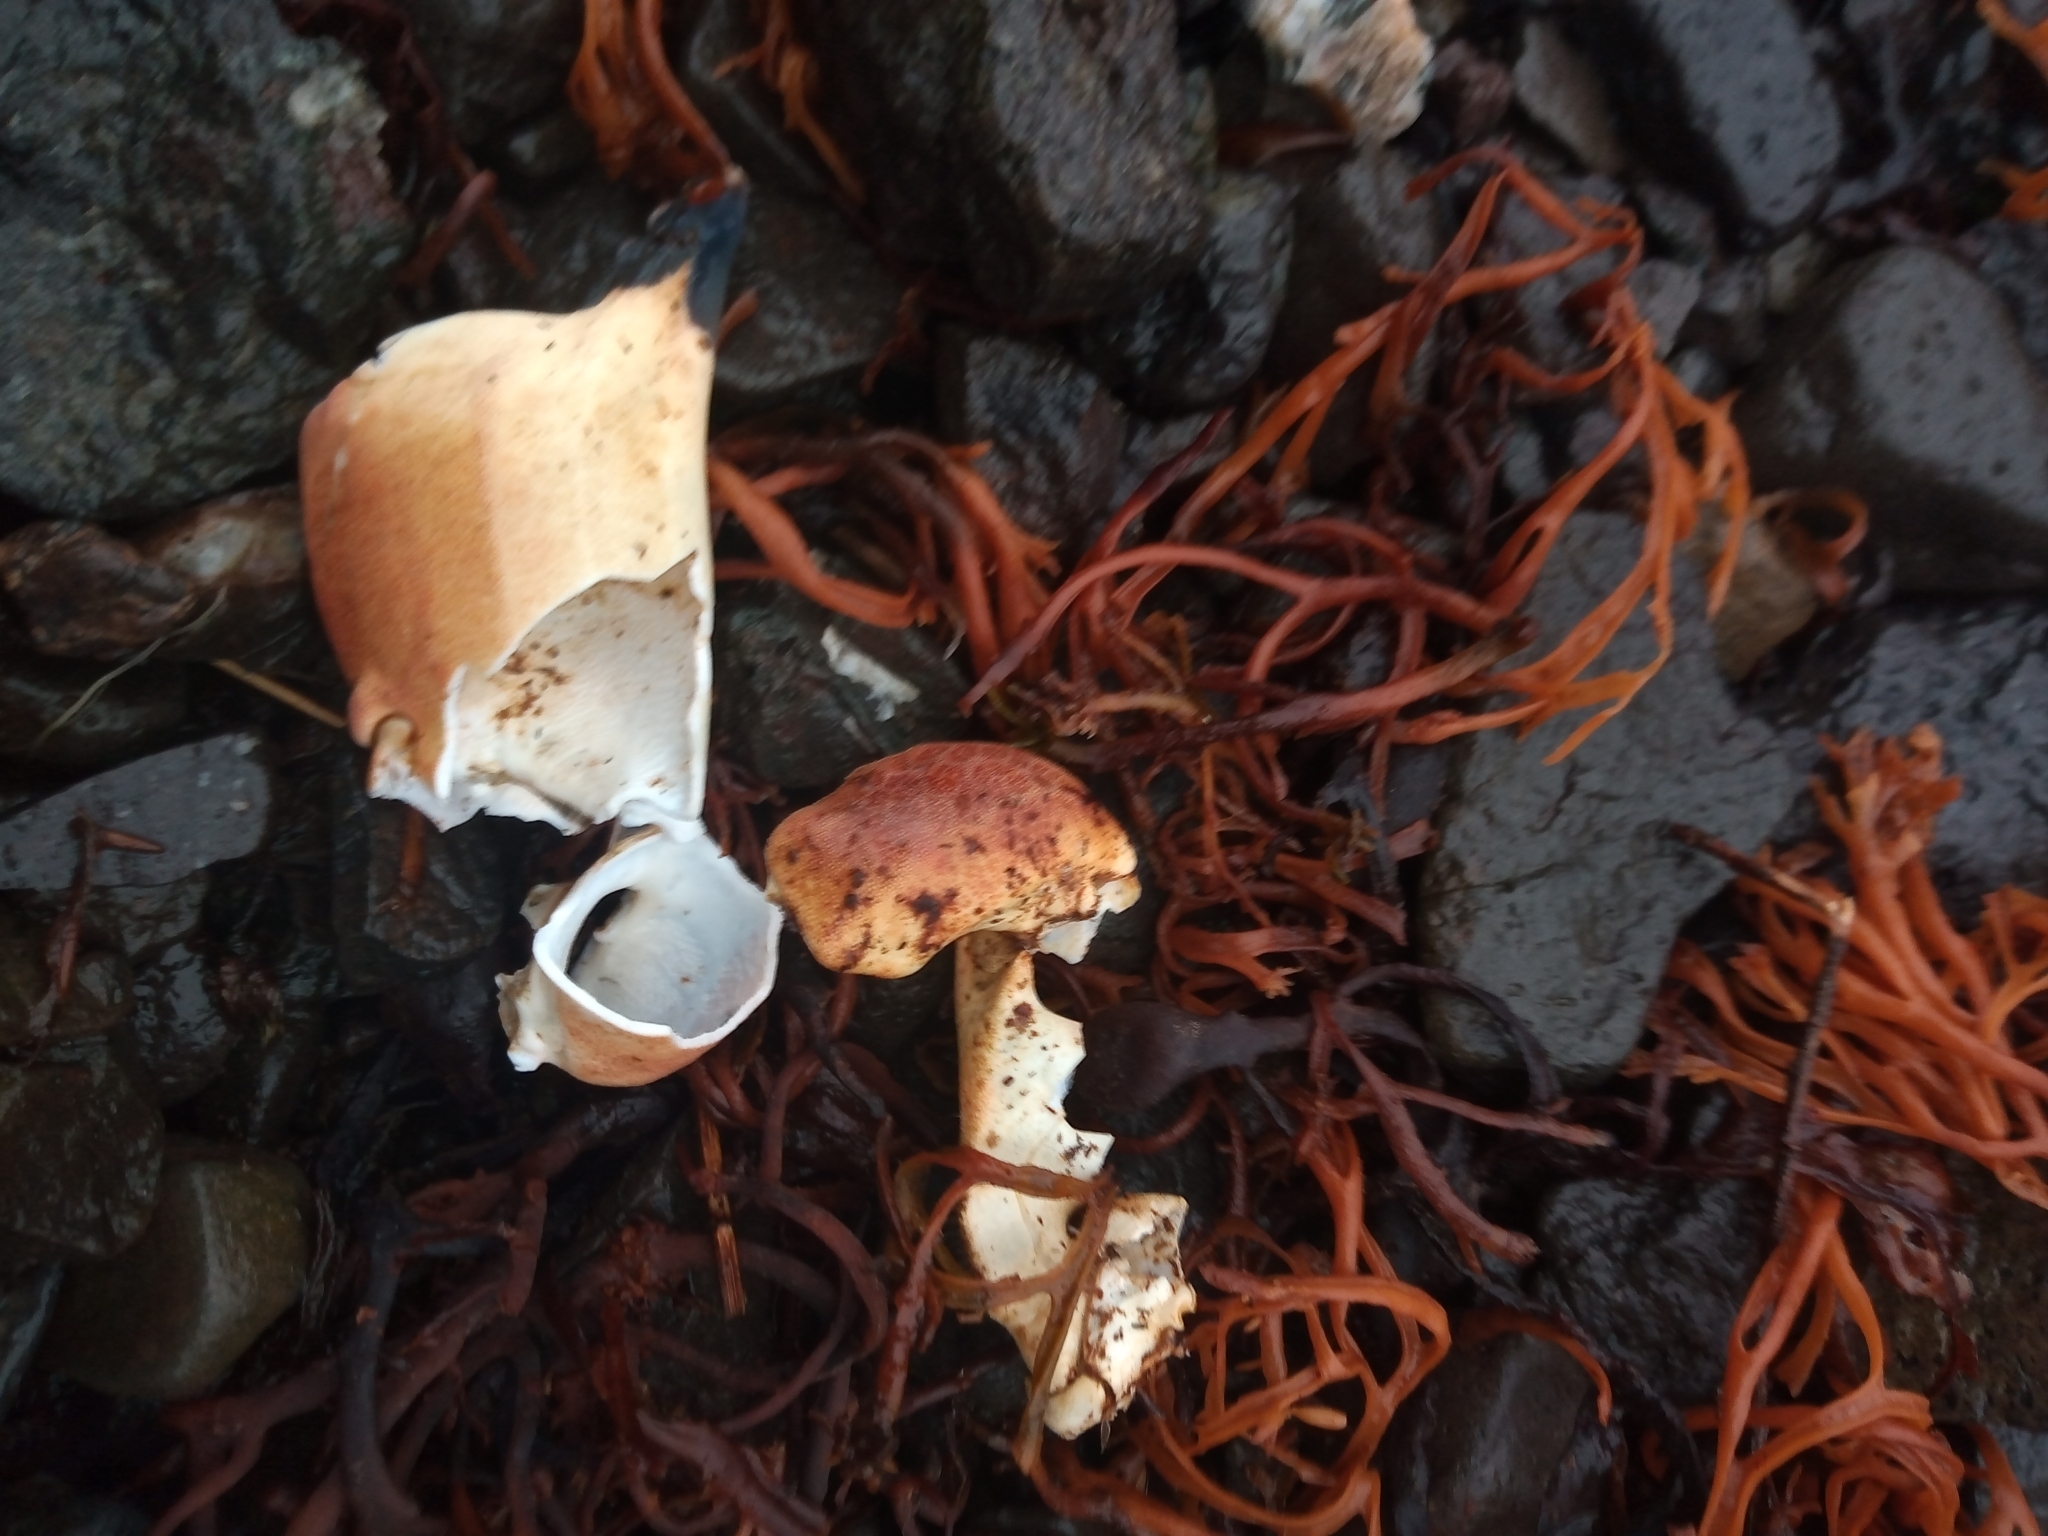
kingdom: Animalia
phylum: Arthropoda
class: Malacostraca
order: Decapoda
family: Cancridae
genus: Cancer
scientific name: Cancer pagurus
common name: Edible crab
